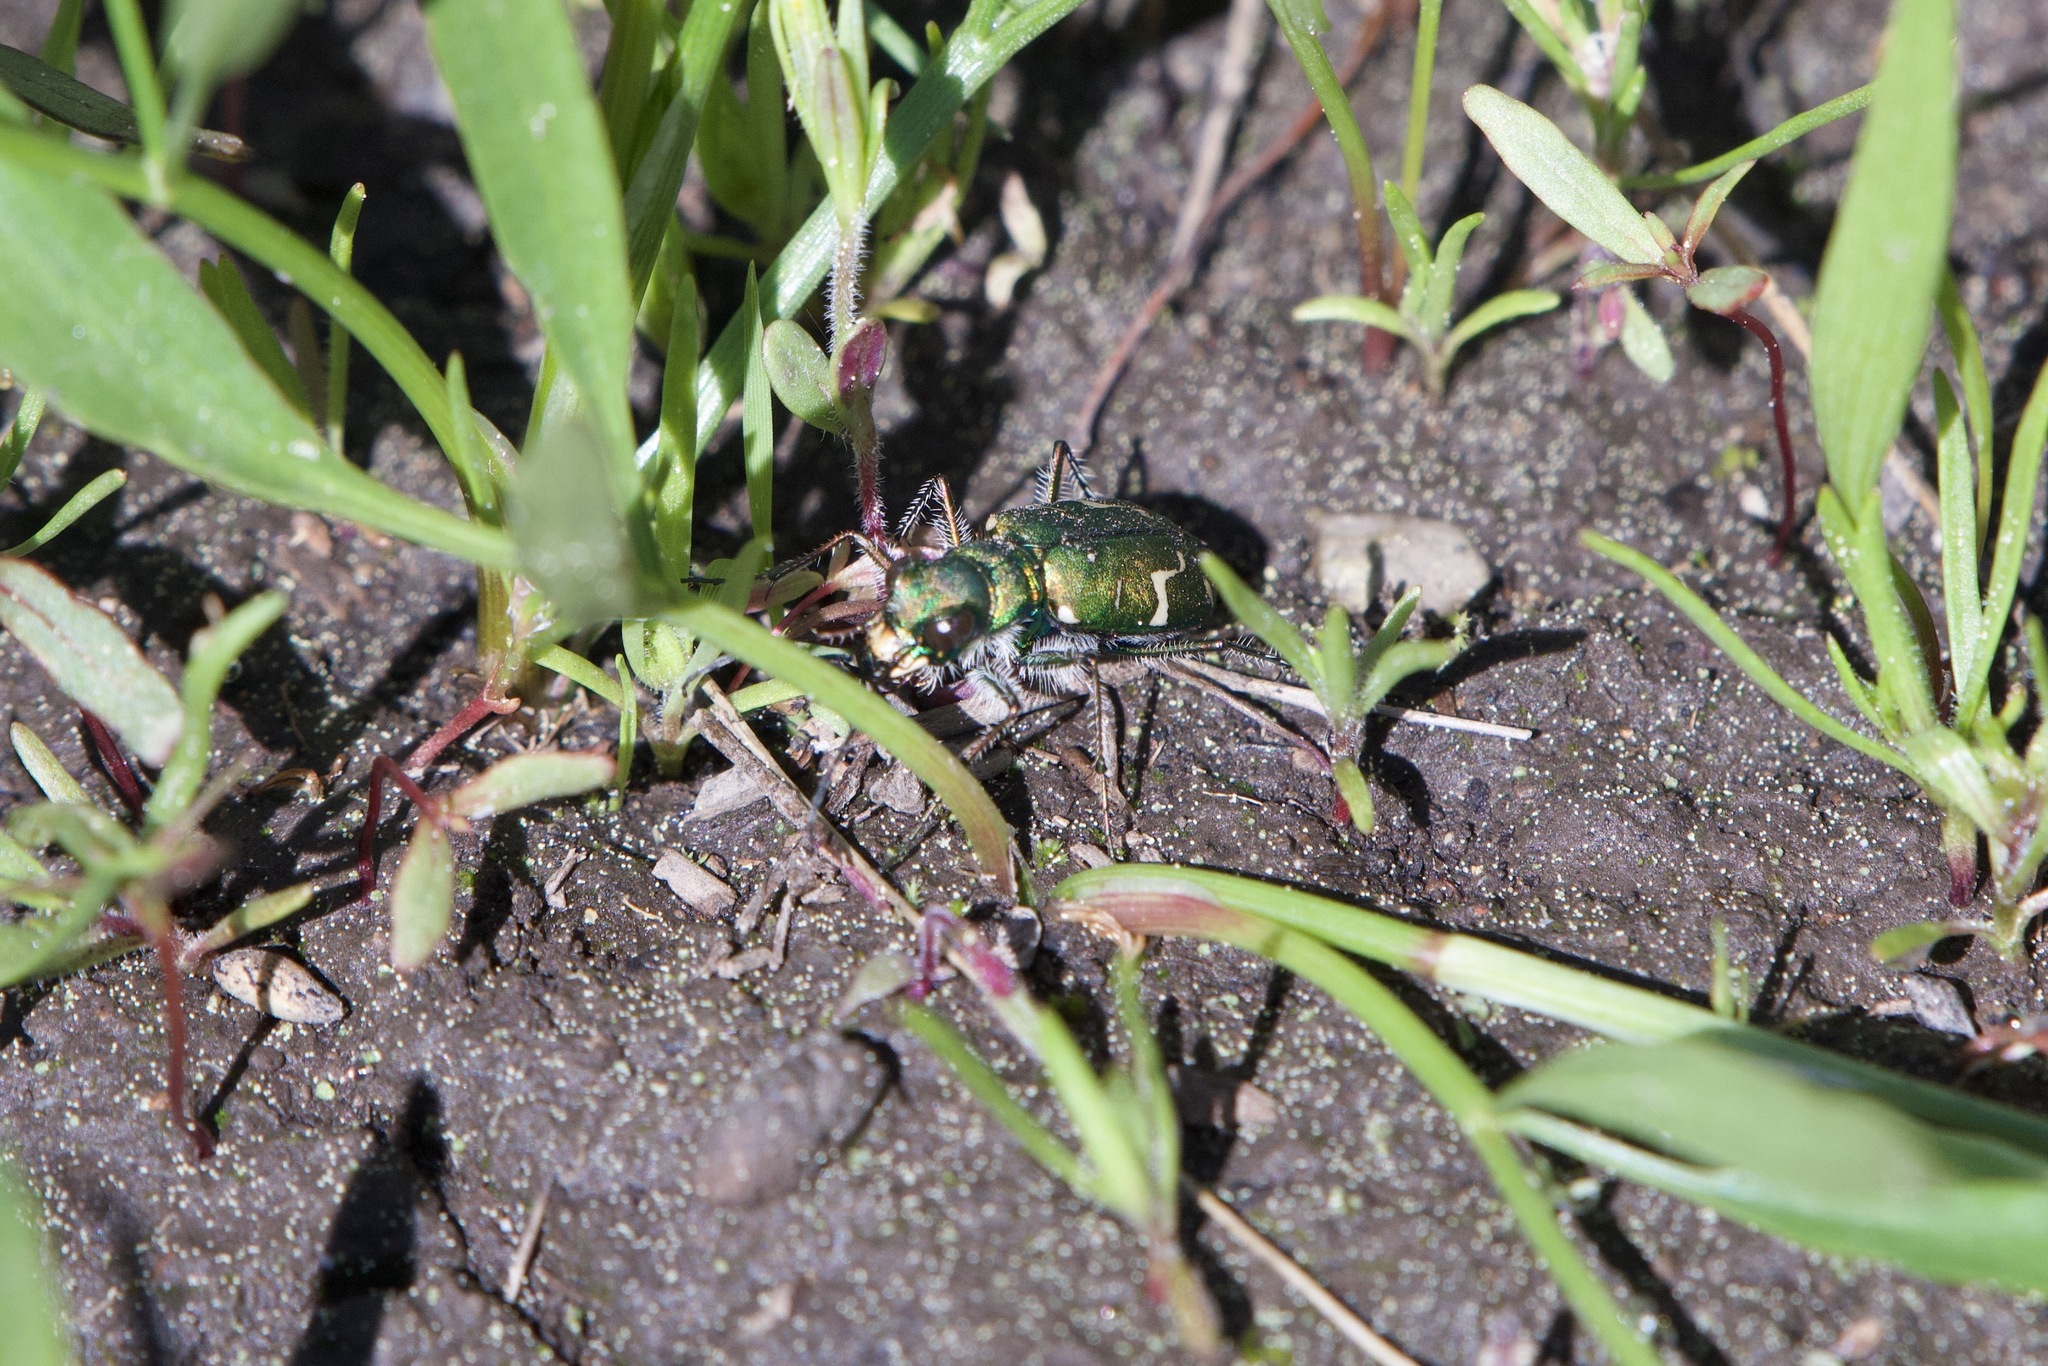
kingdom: Animalia
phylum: Arthropoda
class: Insecta
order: Coleoptera
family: Carabidae
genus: Cicindela
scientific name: Cicindela tranquebarica
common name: Oblique-lined tiger beetle
